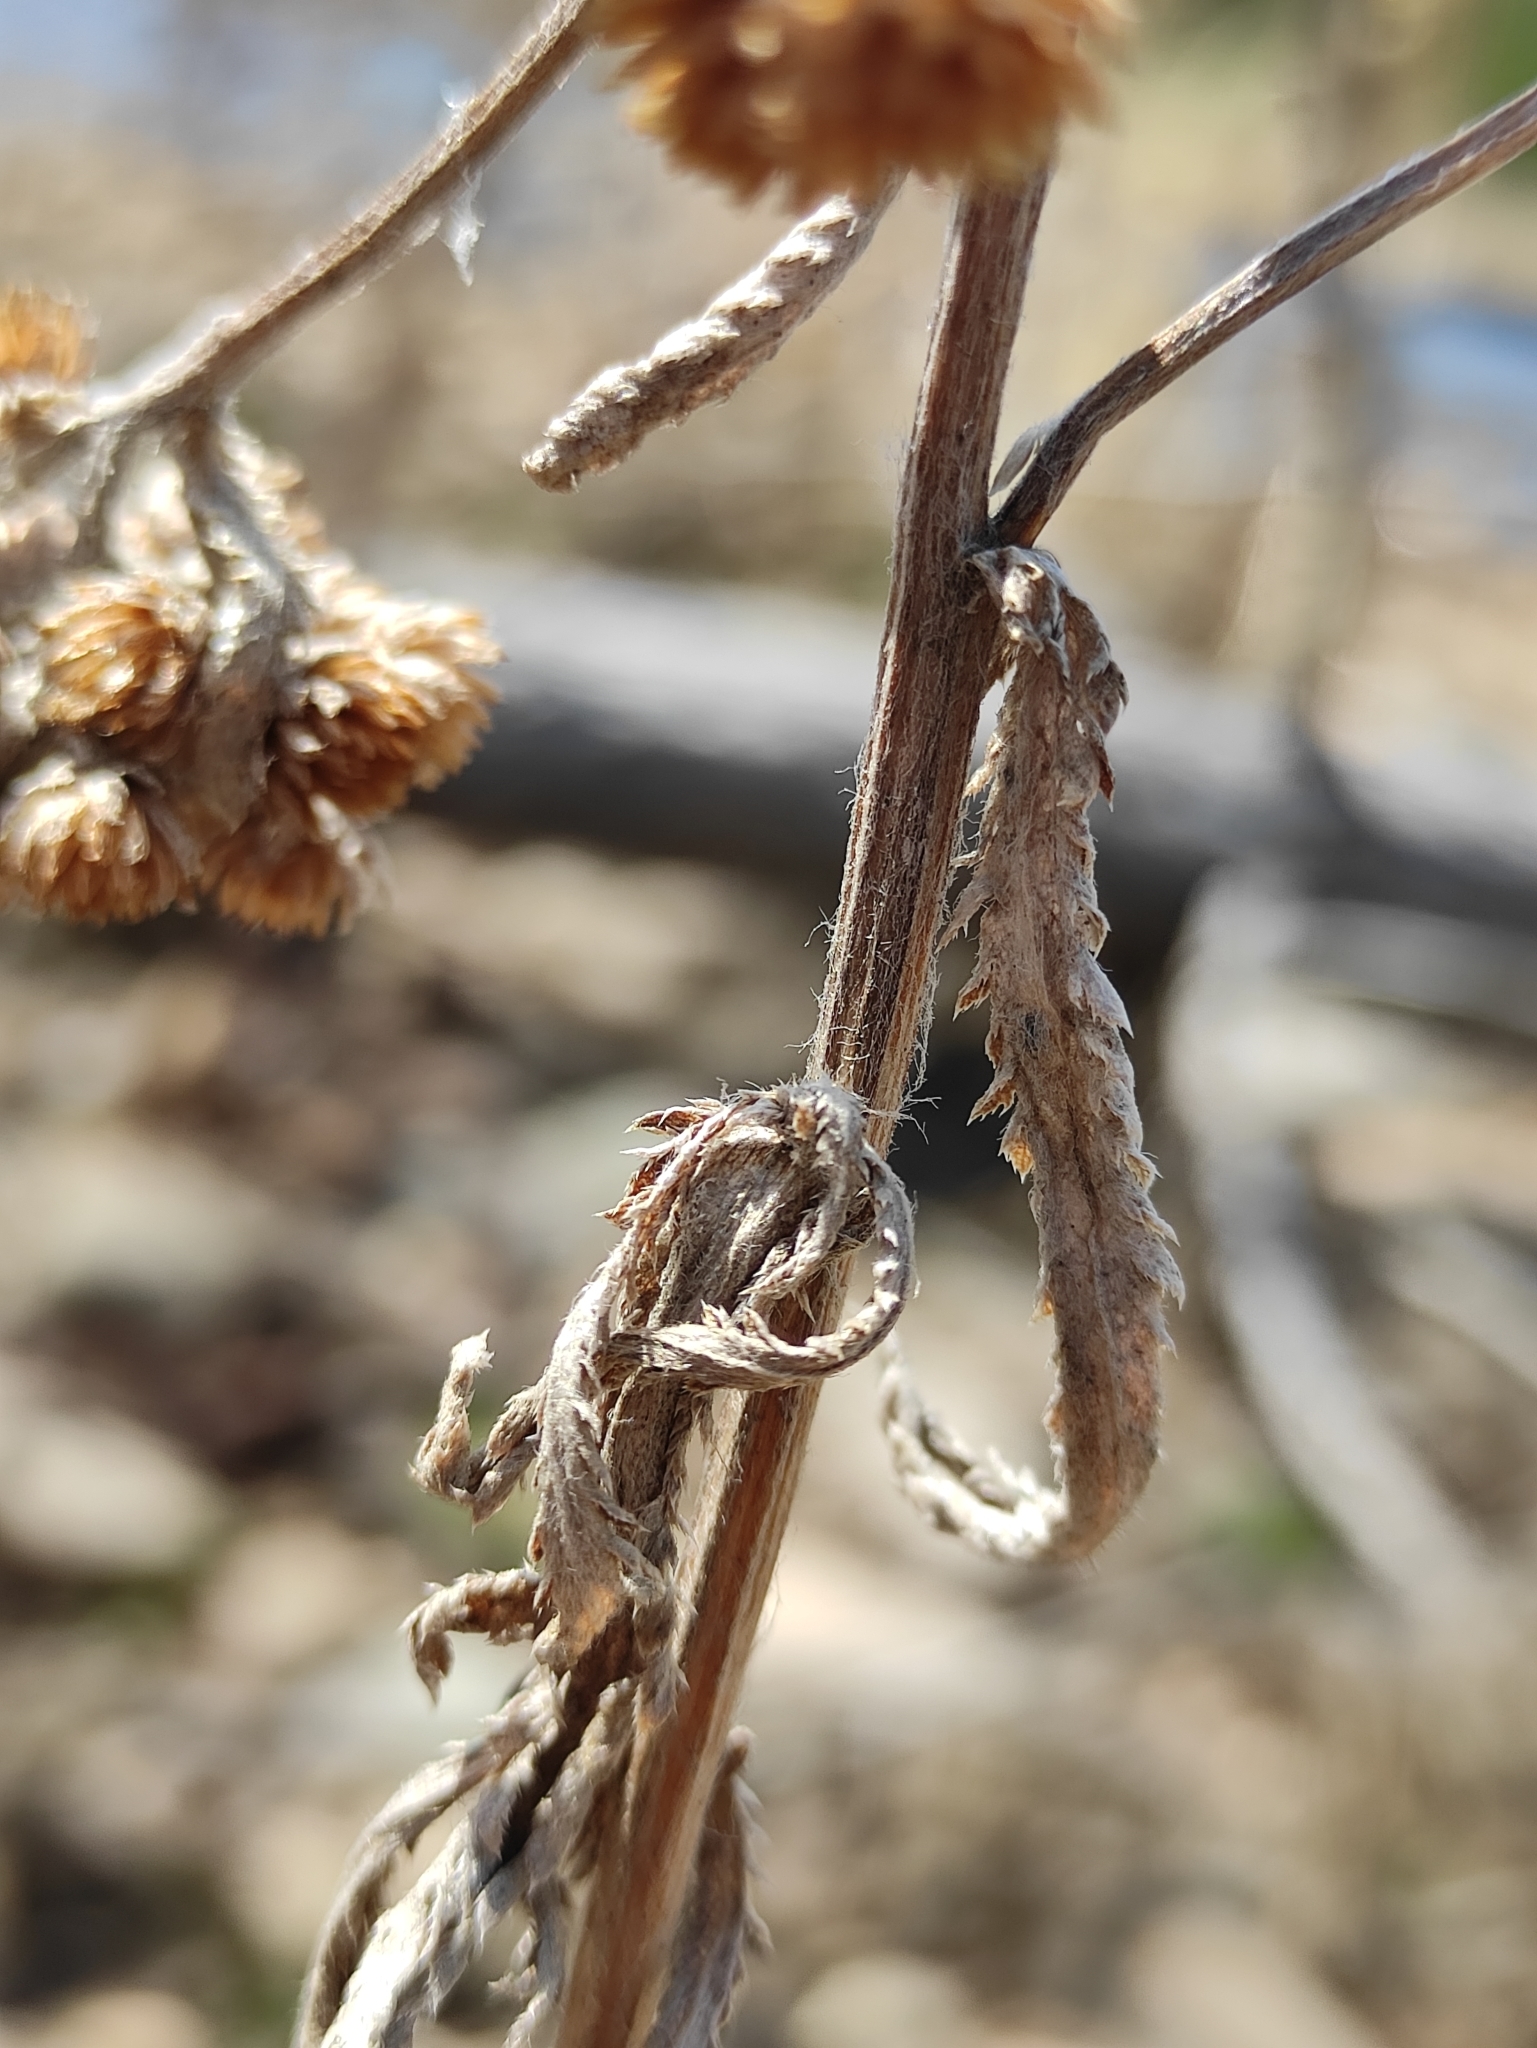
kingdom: Plantae
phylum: Tracheophyta
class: Magnoliopsida
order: Asterales
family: Asteraceae
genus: Achillea
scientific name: Achillea alpina
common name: Siberian yarrow
